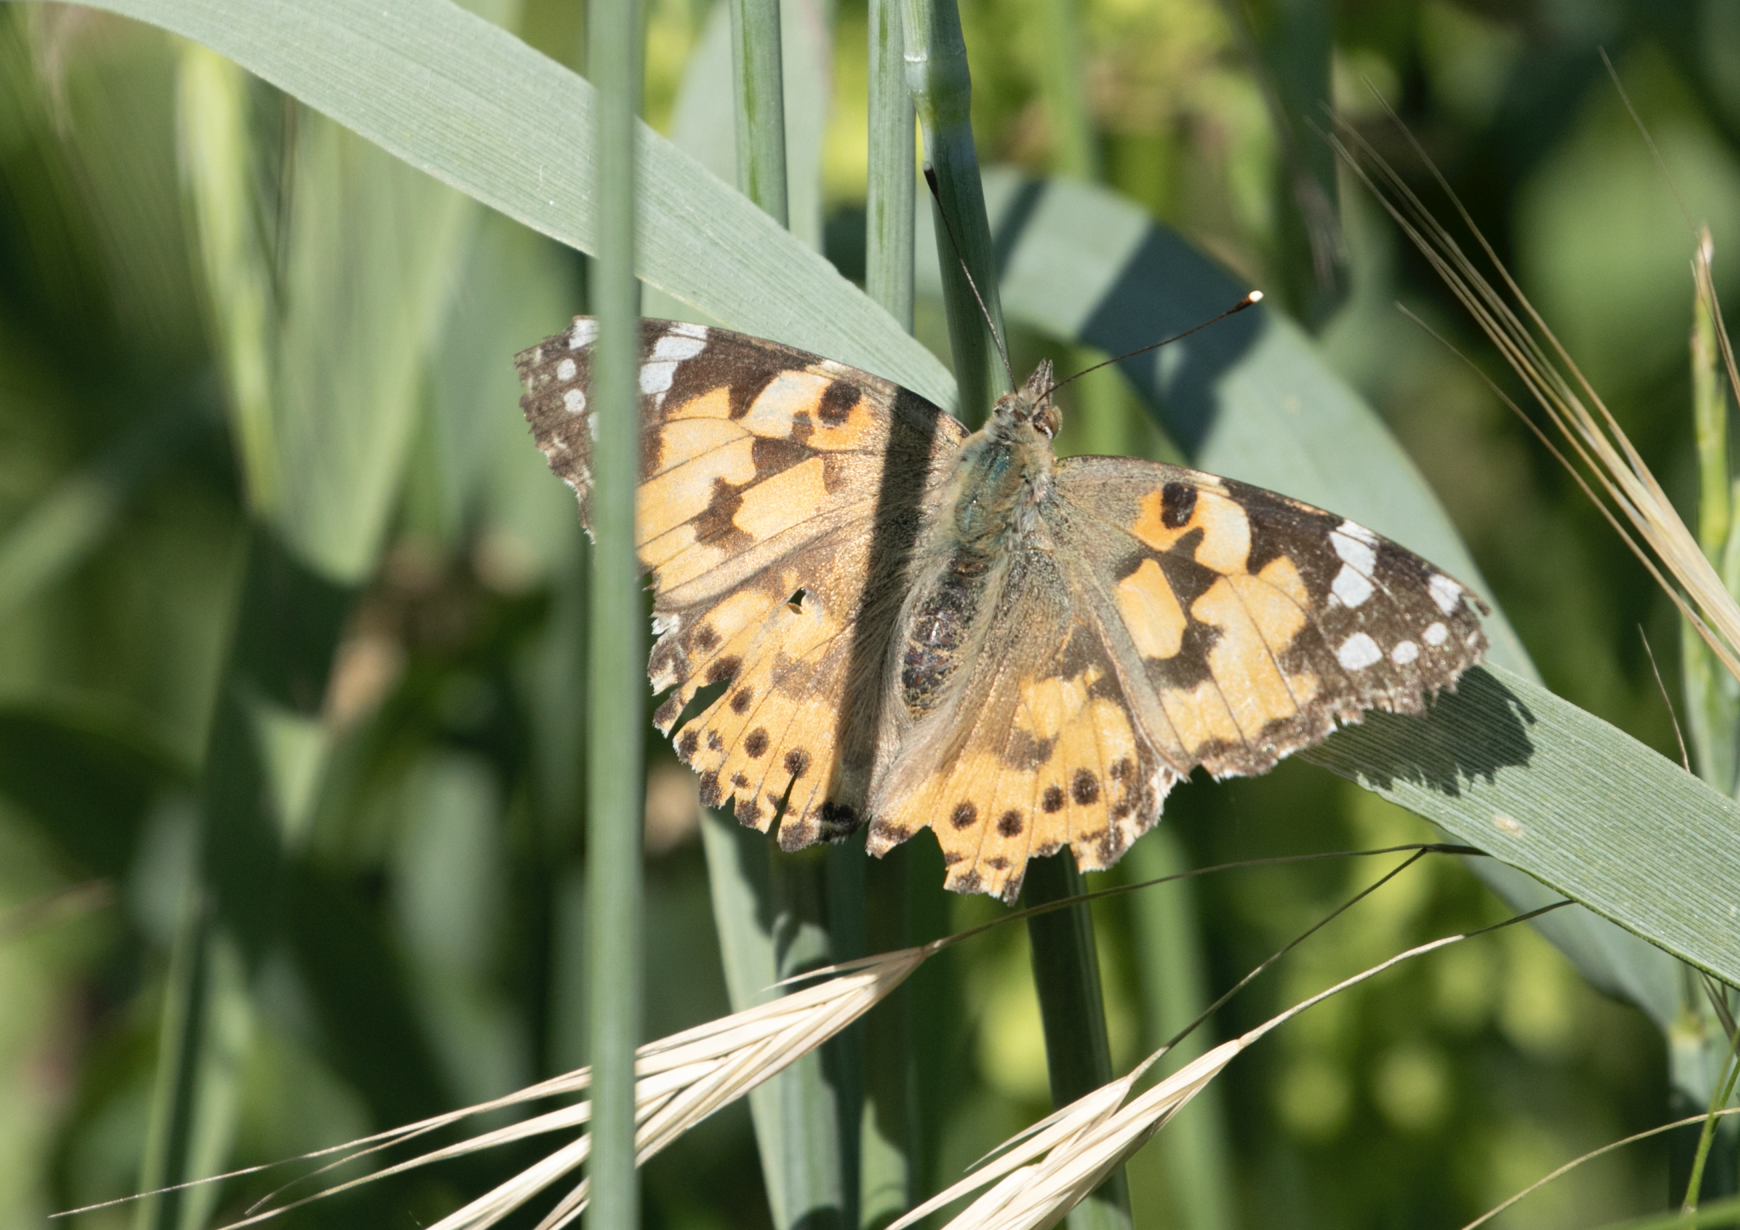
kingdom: Animalia
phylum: Arthropoda
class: Insecta
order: Lepidoptera
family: Nymphalidae
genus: Vanessa
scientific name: Vanessa cardui
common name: Painted lady
